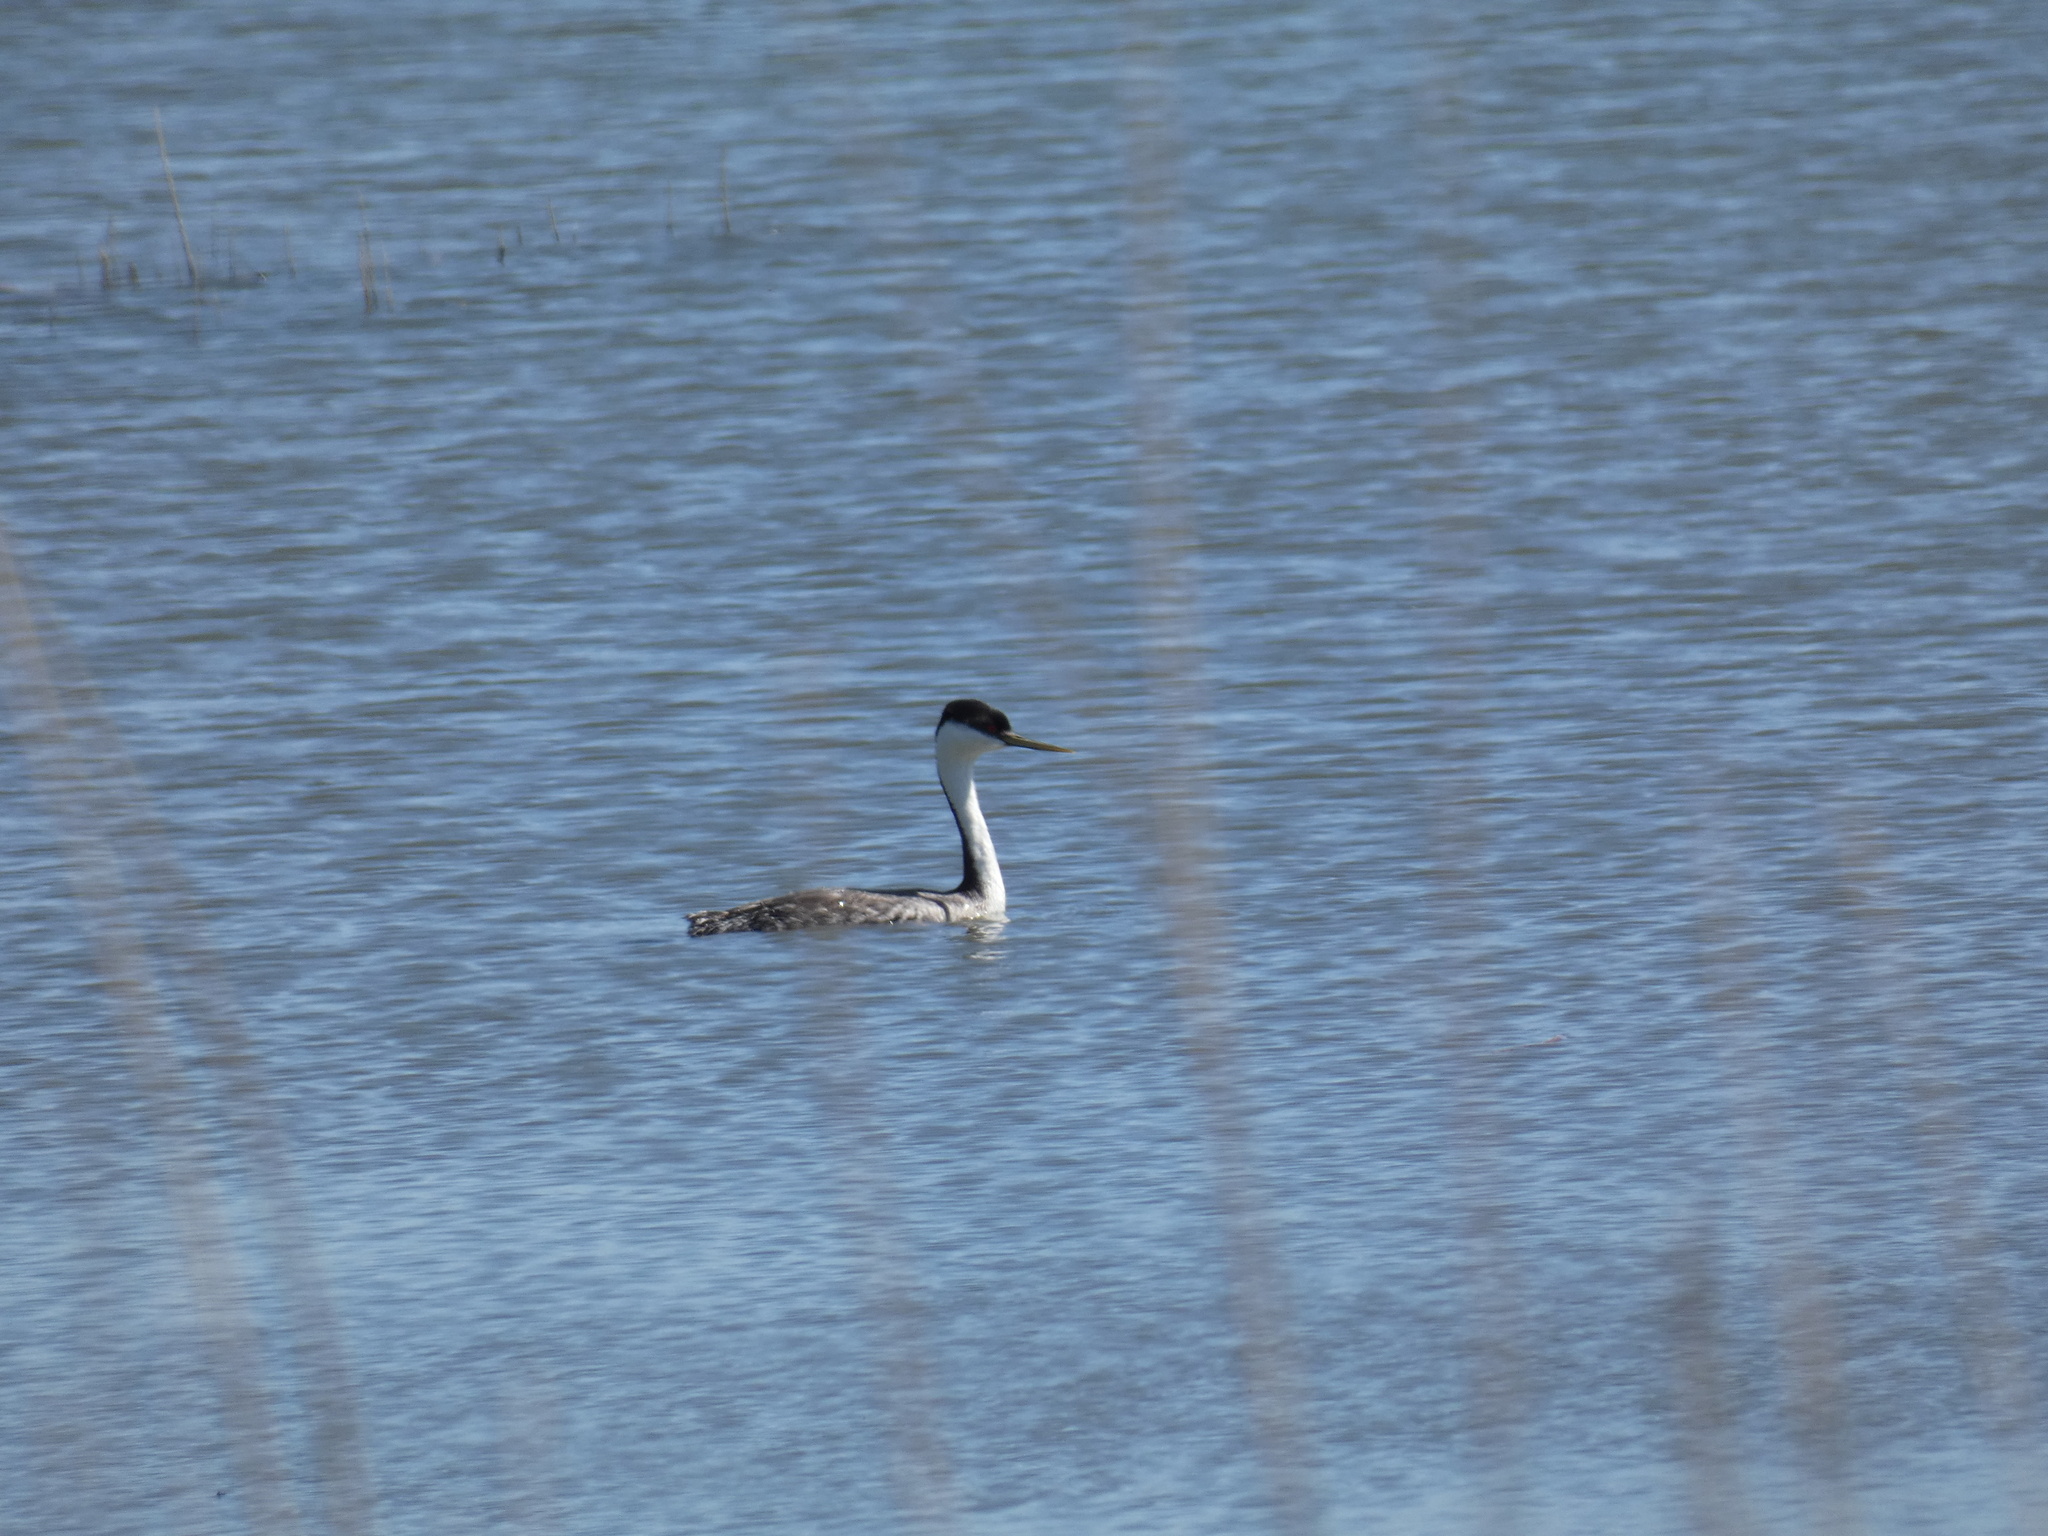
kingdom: Animalia
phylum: Chordata
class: Aves
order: Podicipediformes
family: Podicipedidae
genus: Aechmophorus
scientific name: Aechmophorus occidentalis
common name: Western grebe
